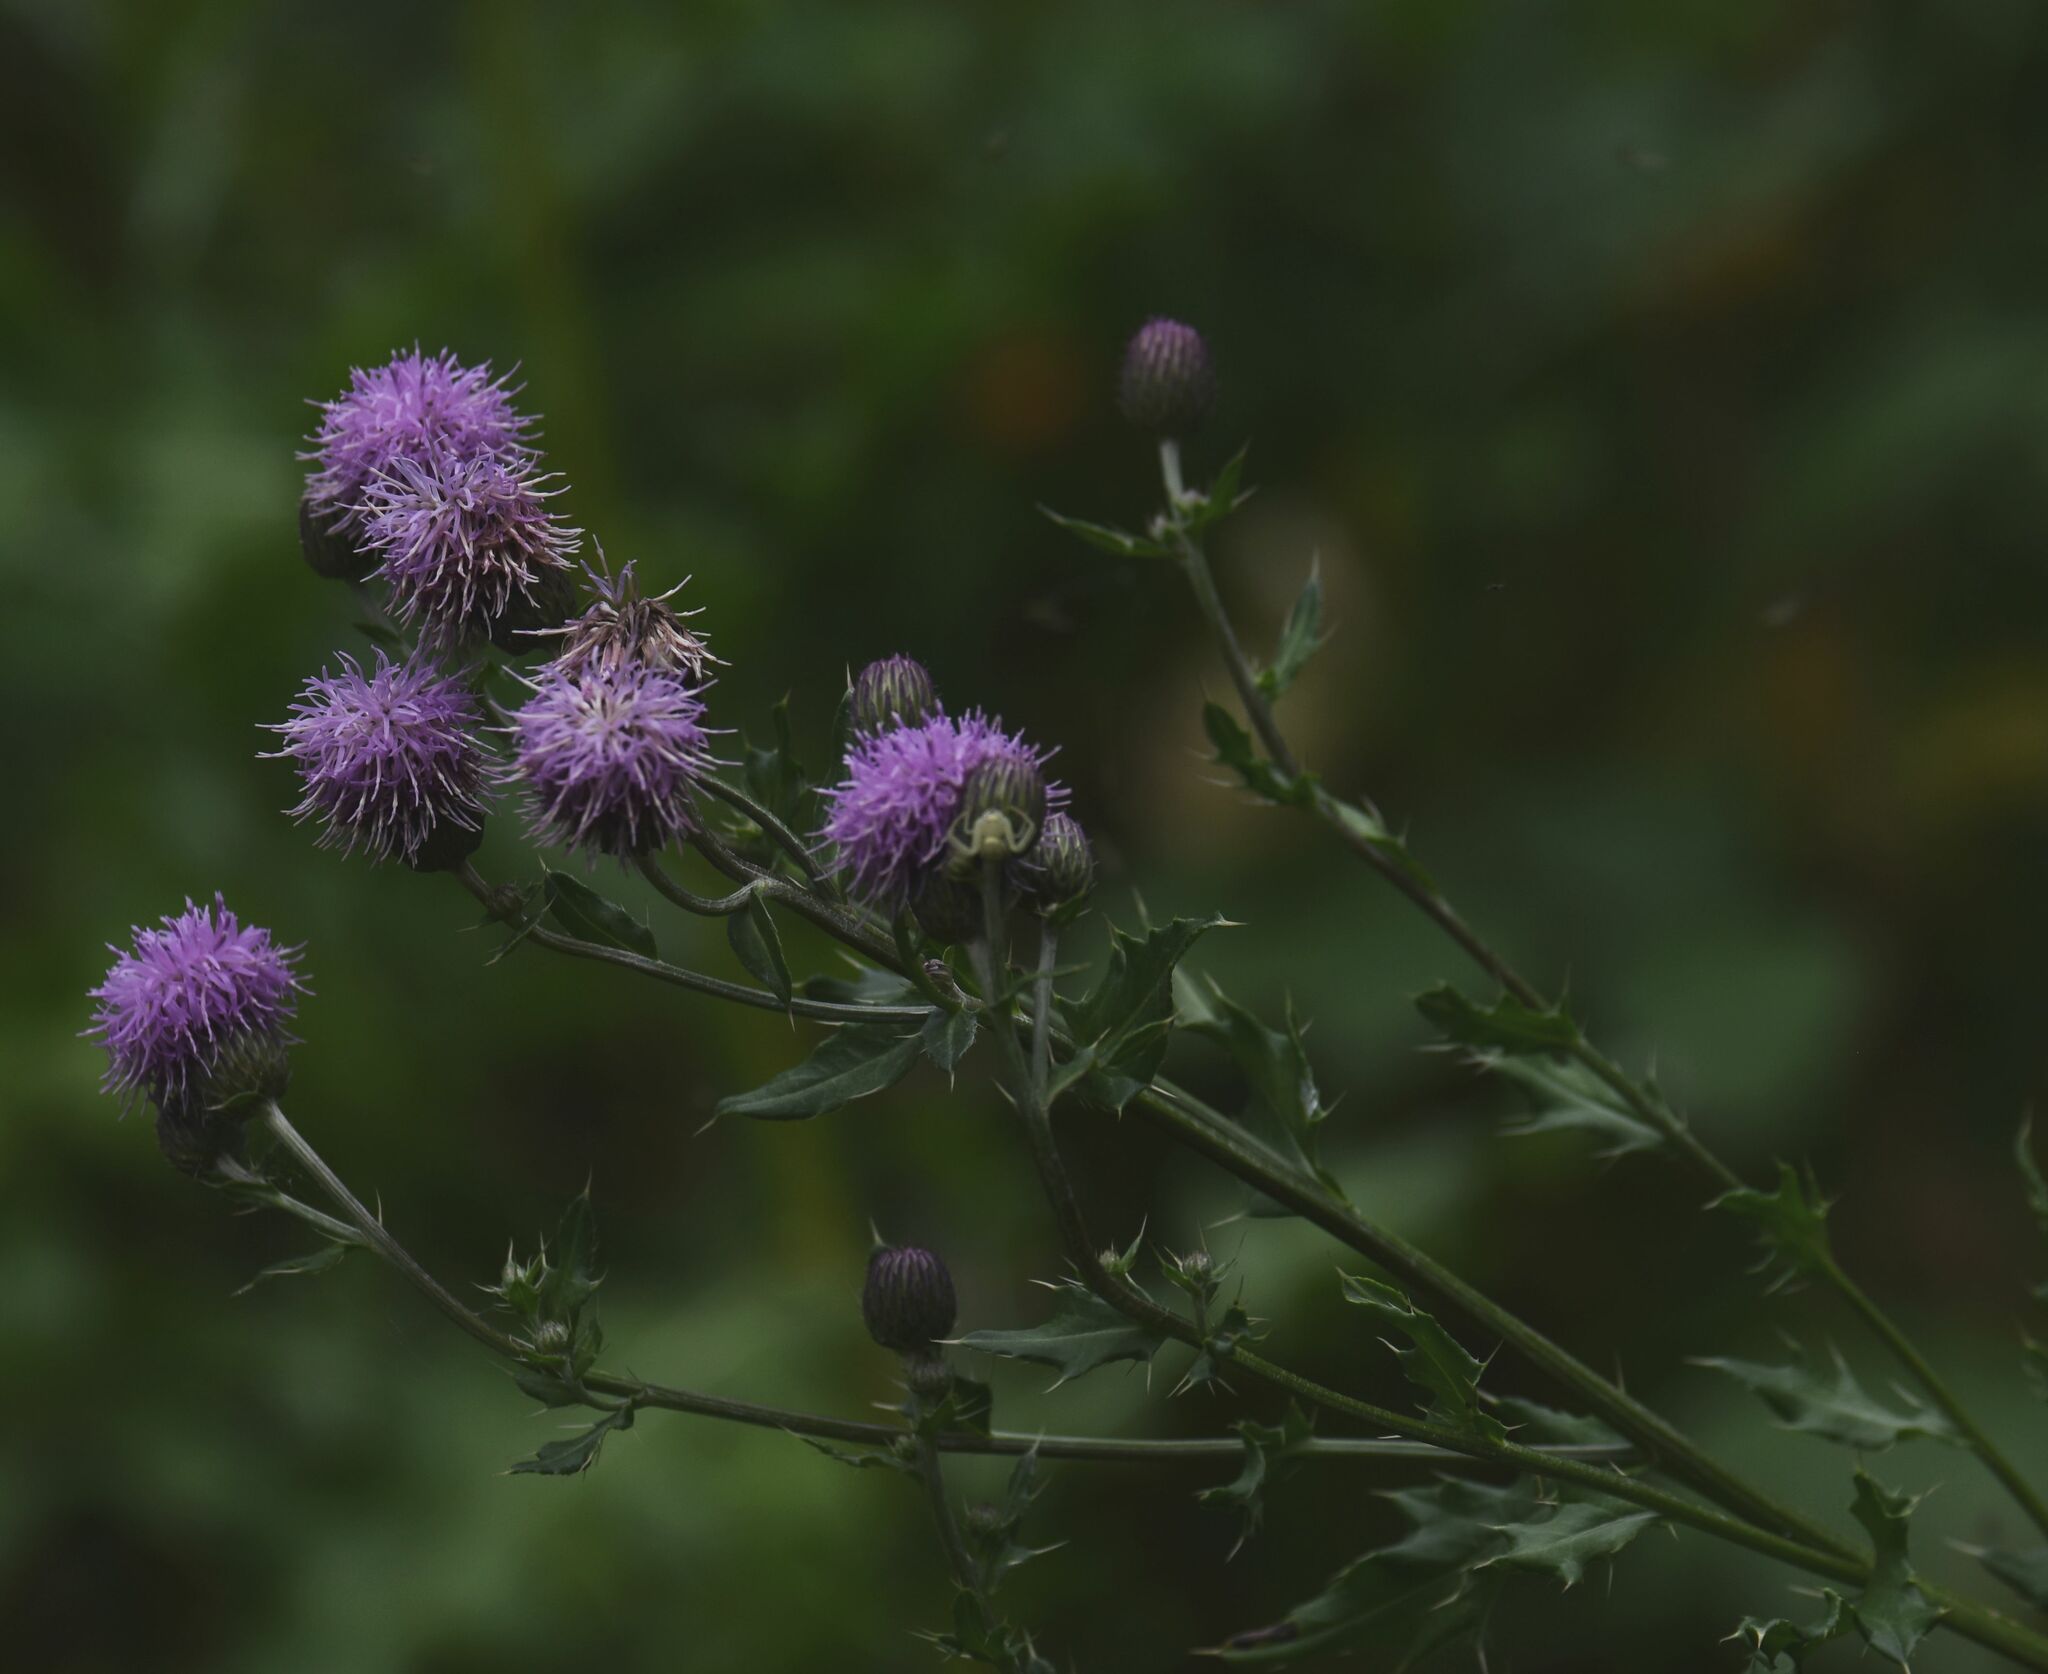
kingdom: Plantae
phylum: Tracheophyta
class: Magnoliopsida
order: Asterales
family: Asteraceae
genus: Cirsium
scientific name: Cirsium arvense
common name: Creeping thistle
